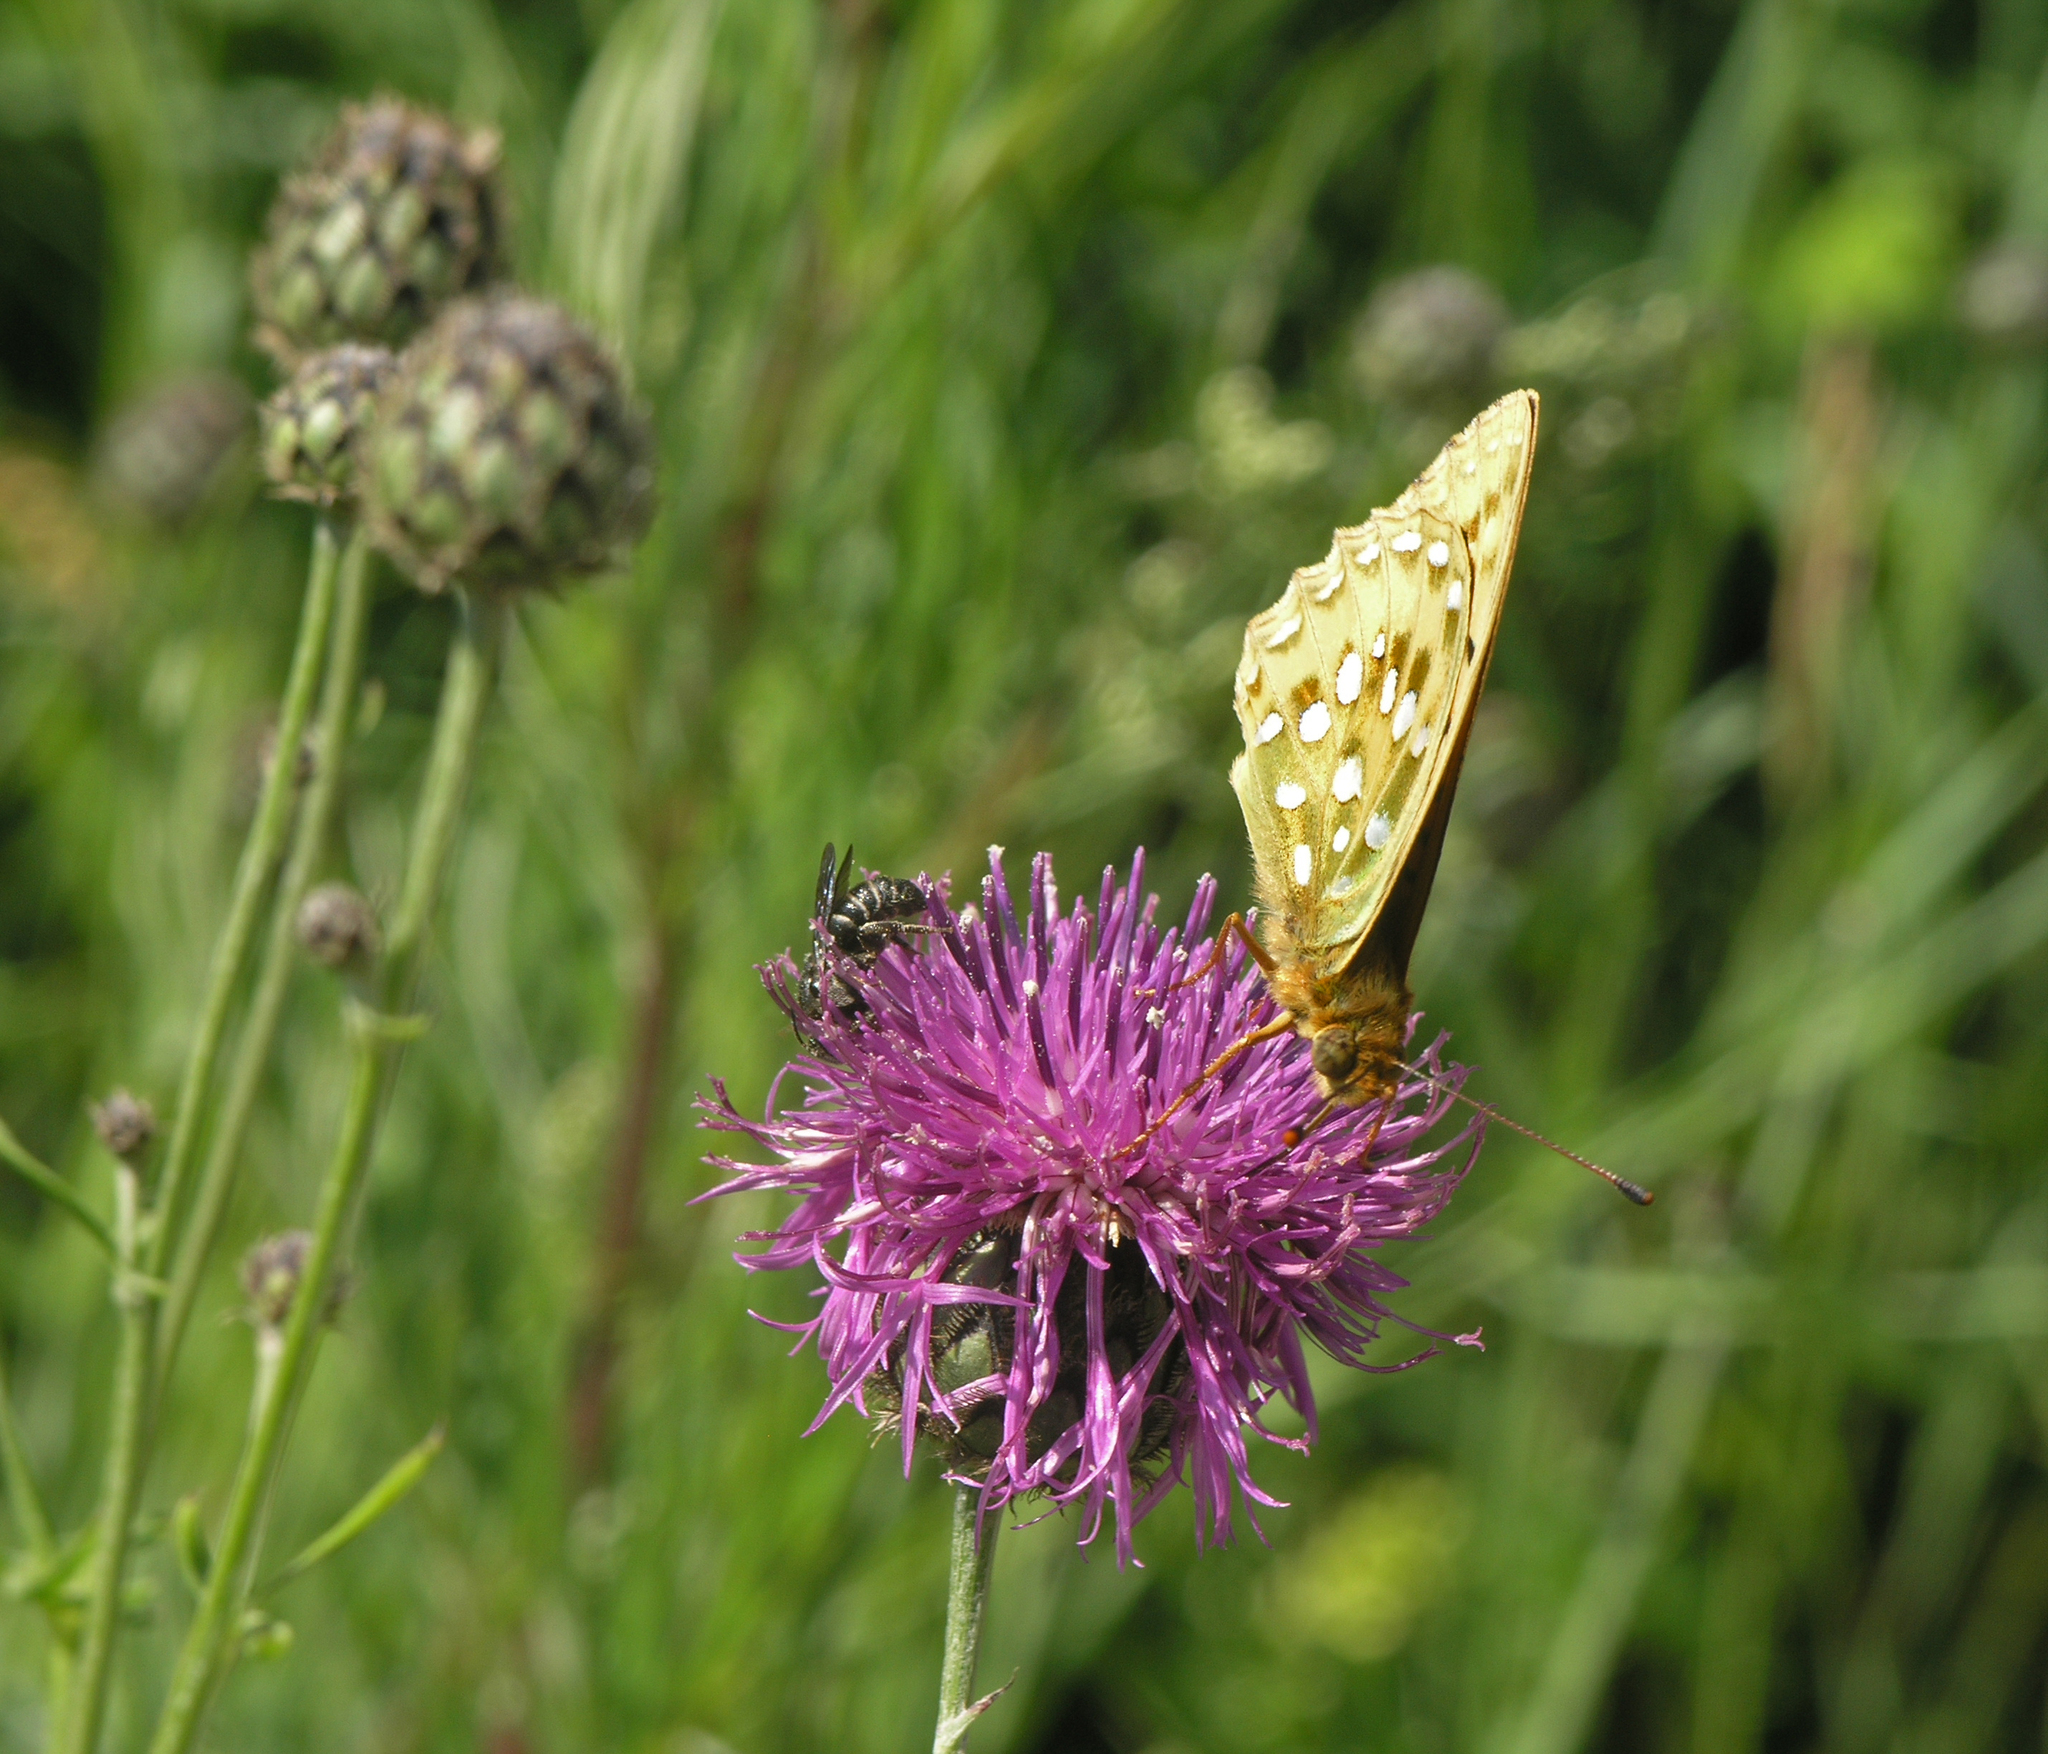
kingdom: Animalia
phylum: Arthropoda
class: Insecta
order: Lepidoptera
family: Nymphalidae
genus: Speyeria
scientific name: Speyeria aglaja
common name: Dark green fritillary
